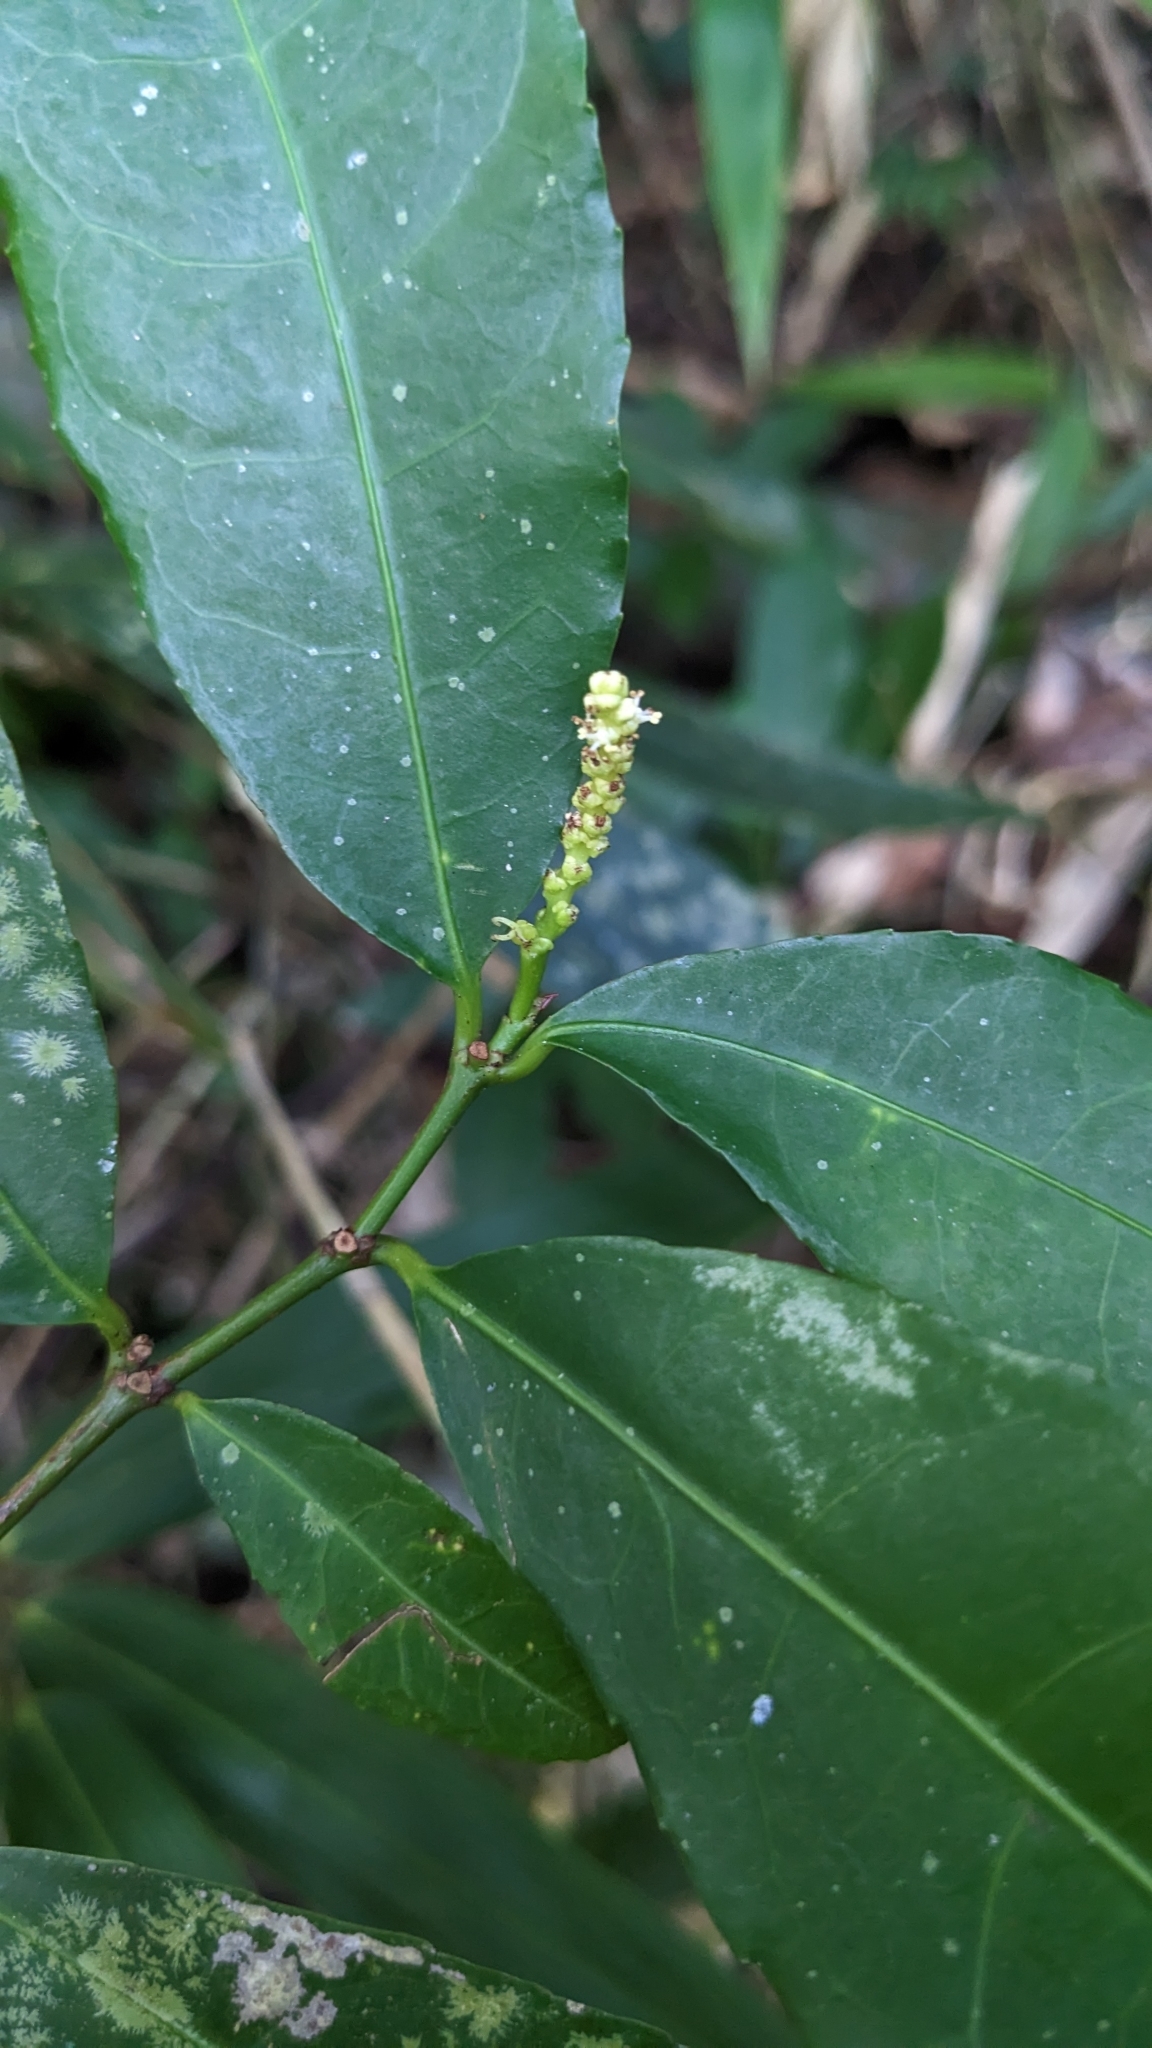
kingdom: Plantae
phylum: Tracheophyta
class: Magnoliopsida
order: Malpighiales
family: Euphorbiaceae
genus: Excoecaria
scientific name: Excoecaria formosana
